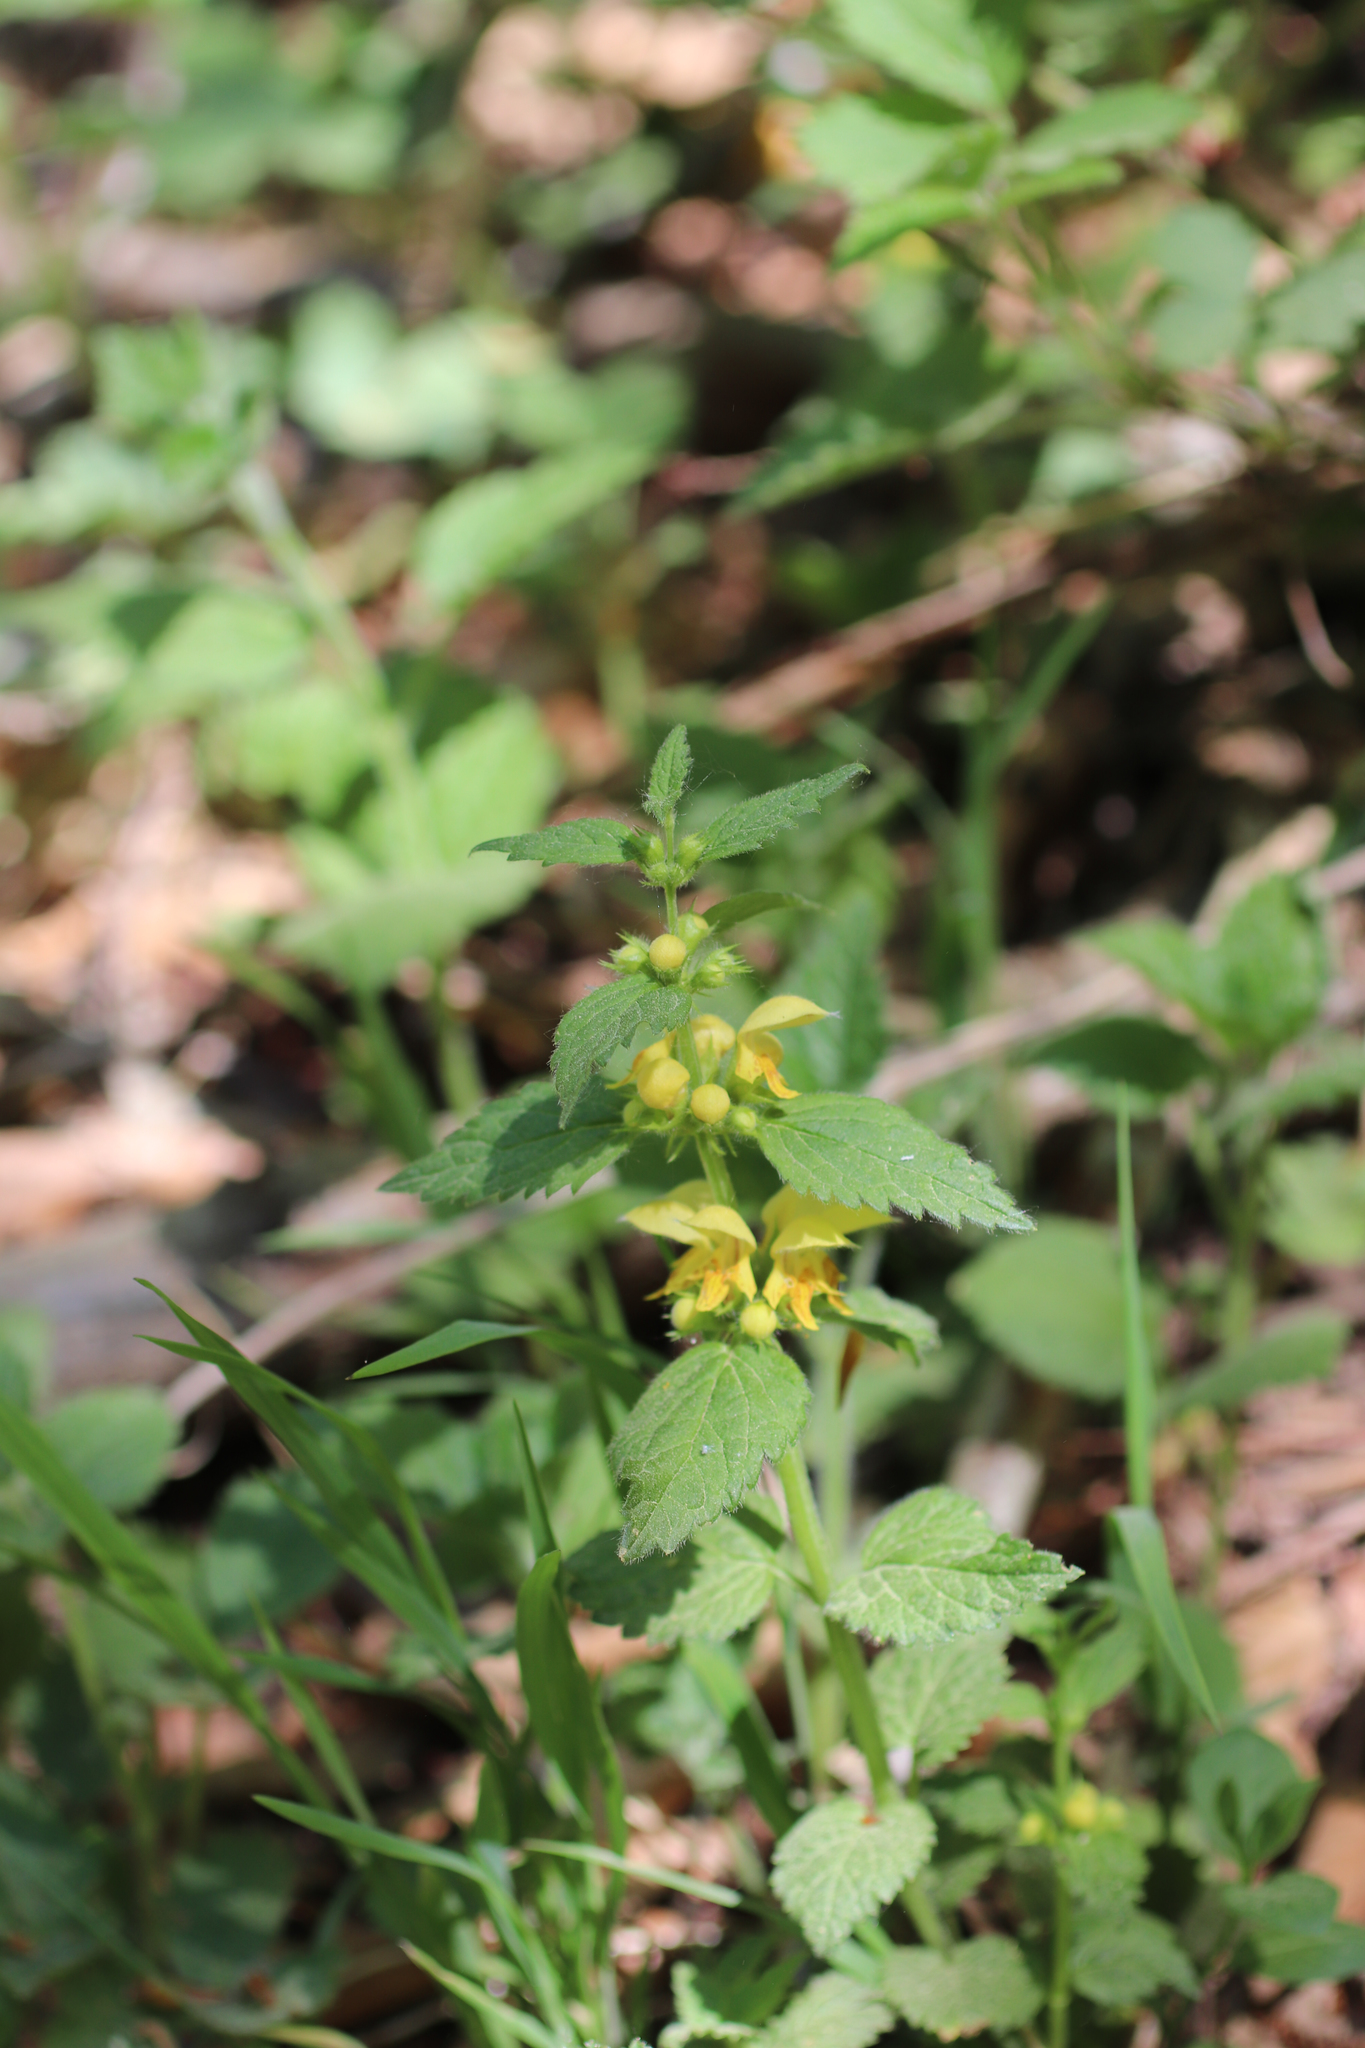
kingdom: Plantae
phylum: Tracheophyta
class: Magnoliopsida
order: Lamiales
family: Lamiaceae
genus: Lamium
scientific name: Lamium galeobdolon
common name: Yellow archangel
